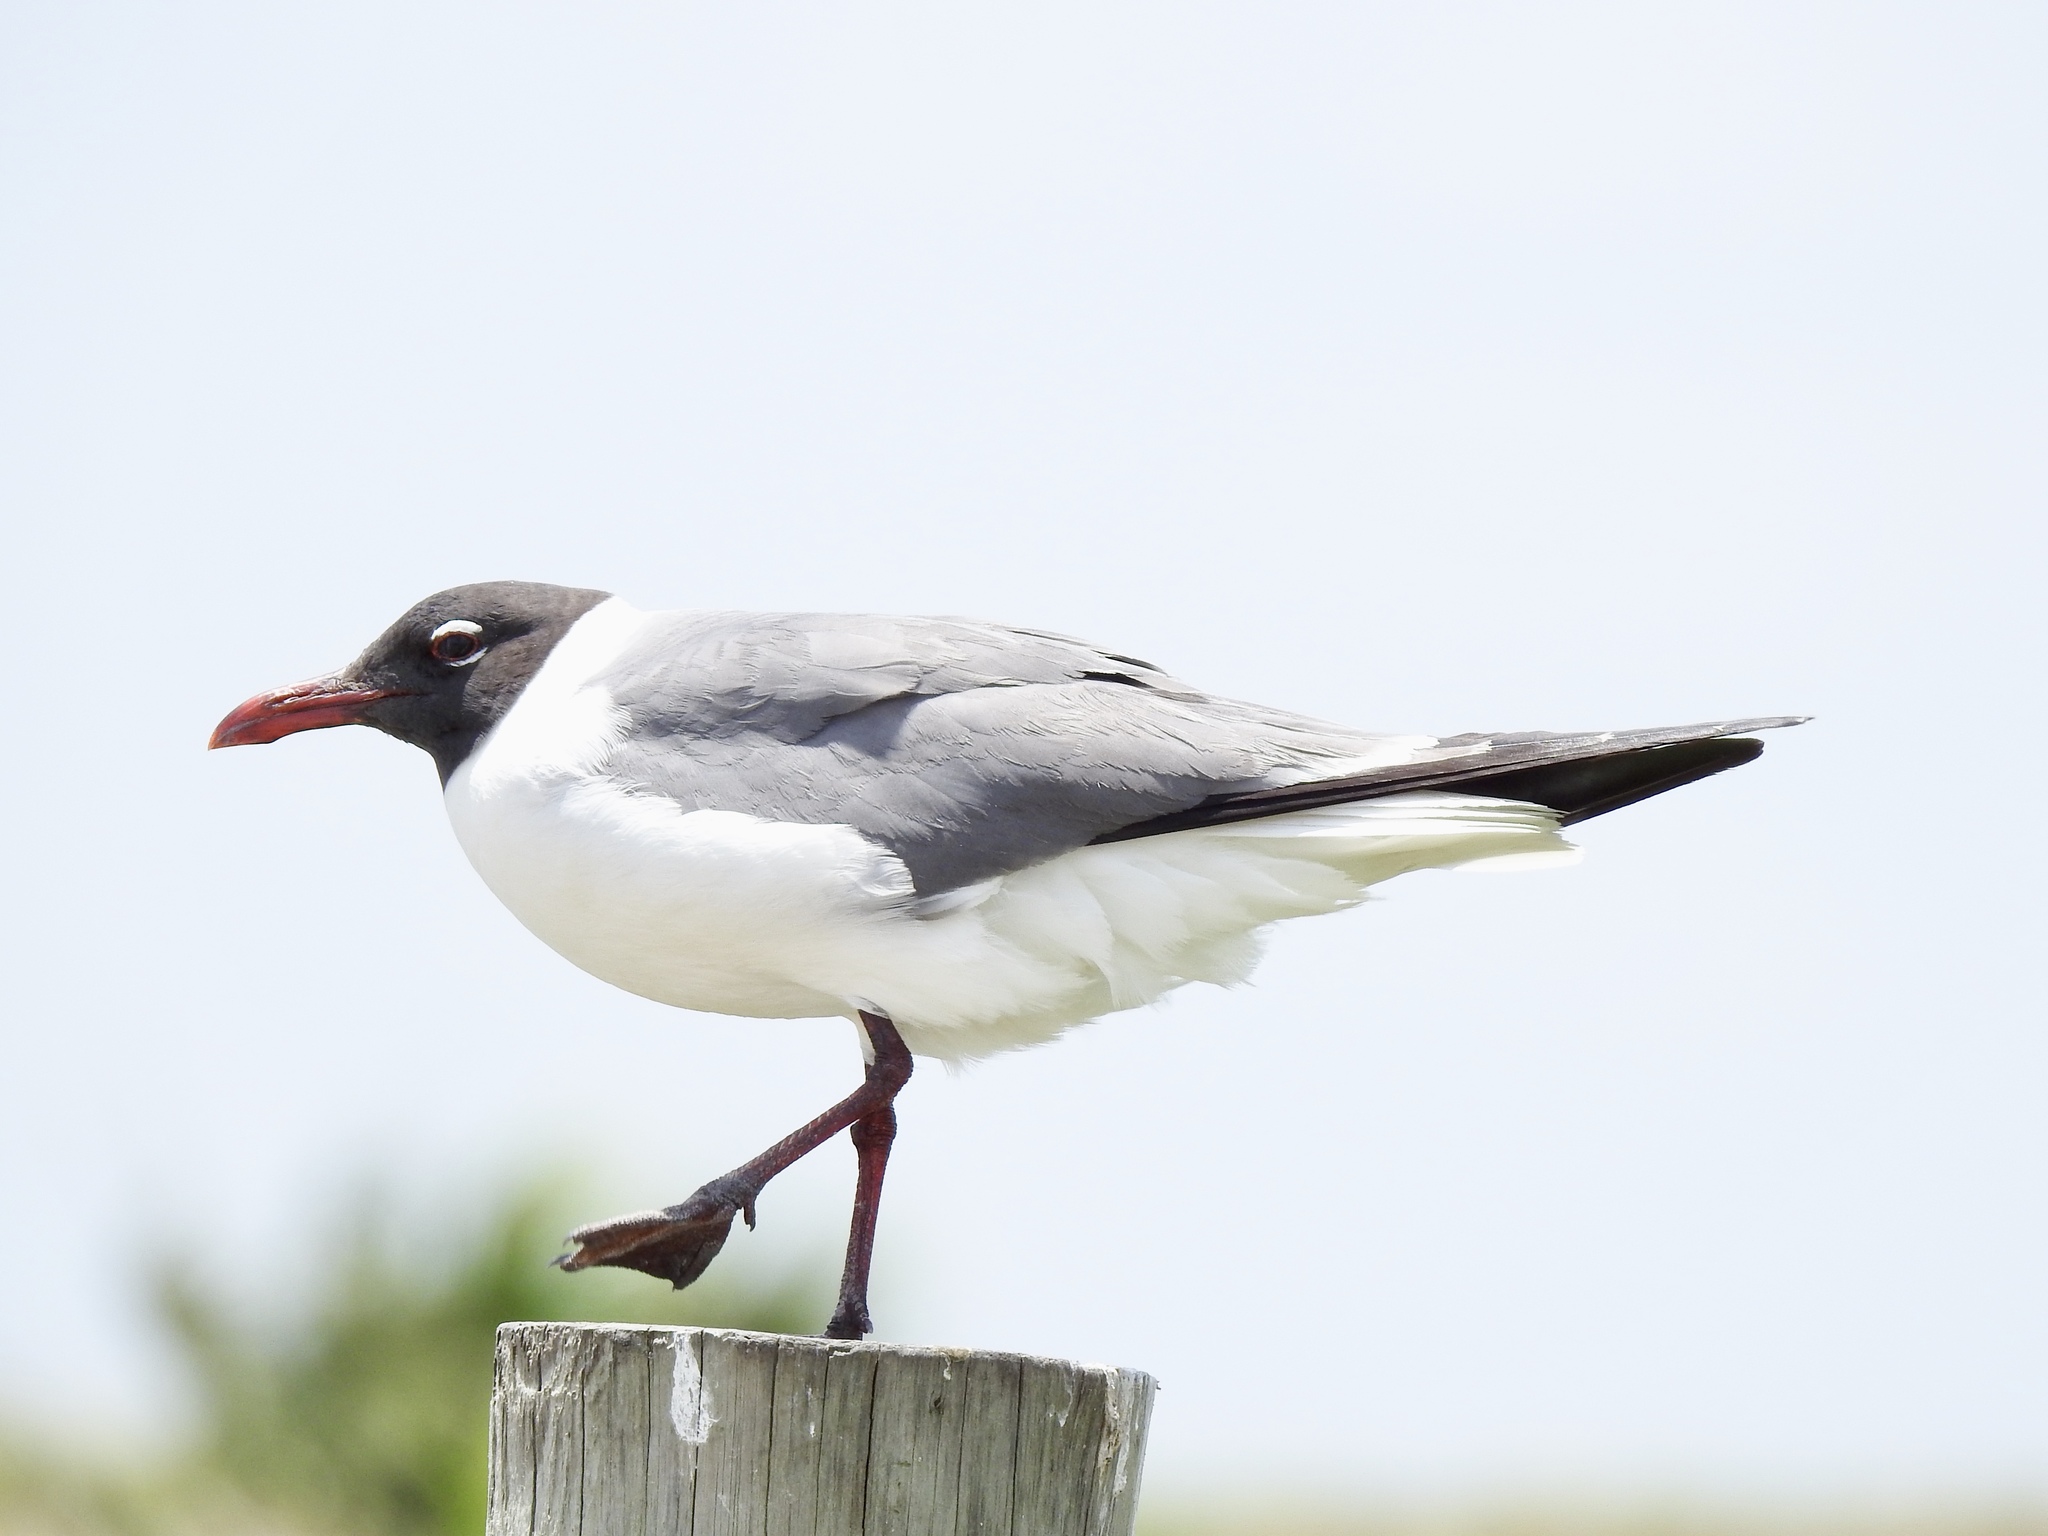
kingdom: Animalia
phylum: Chordata
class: Aves
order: Charadriiformes
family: Laridae
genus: Leucophaeus
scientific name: Leucophaeus atricilla
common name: Laughing gull
